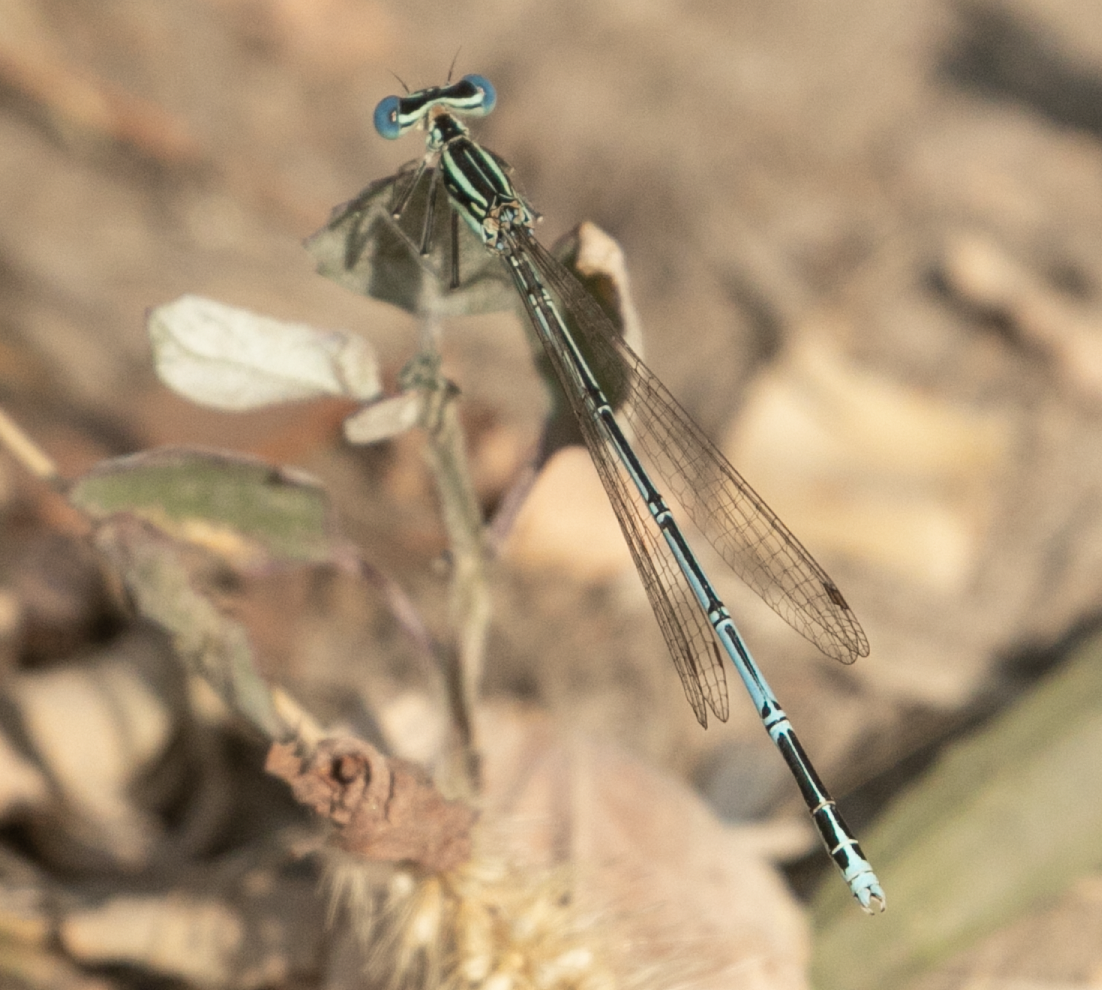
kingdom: Animalia
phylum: Arthropoda
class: Insecta
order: Odonata
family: Platycnemididae
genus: Platycnemis
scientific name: Platycnemis pennipes
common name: White-legged damselfly
